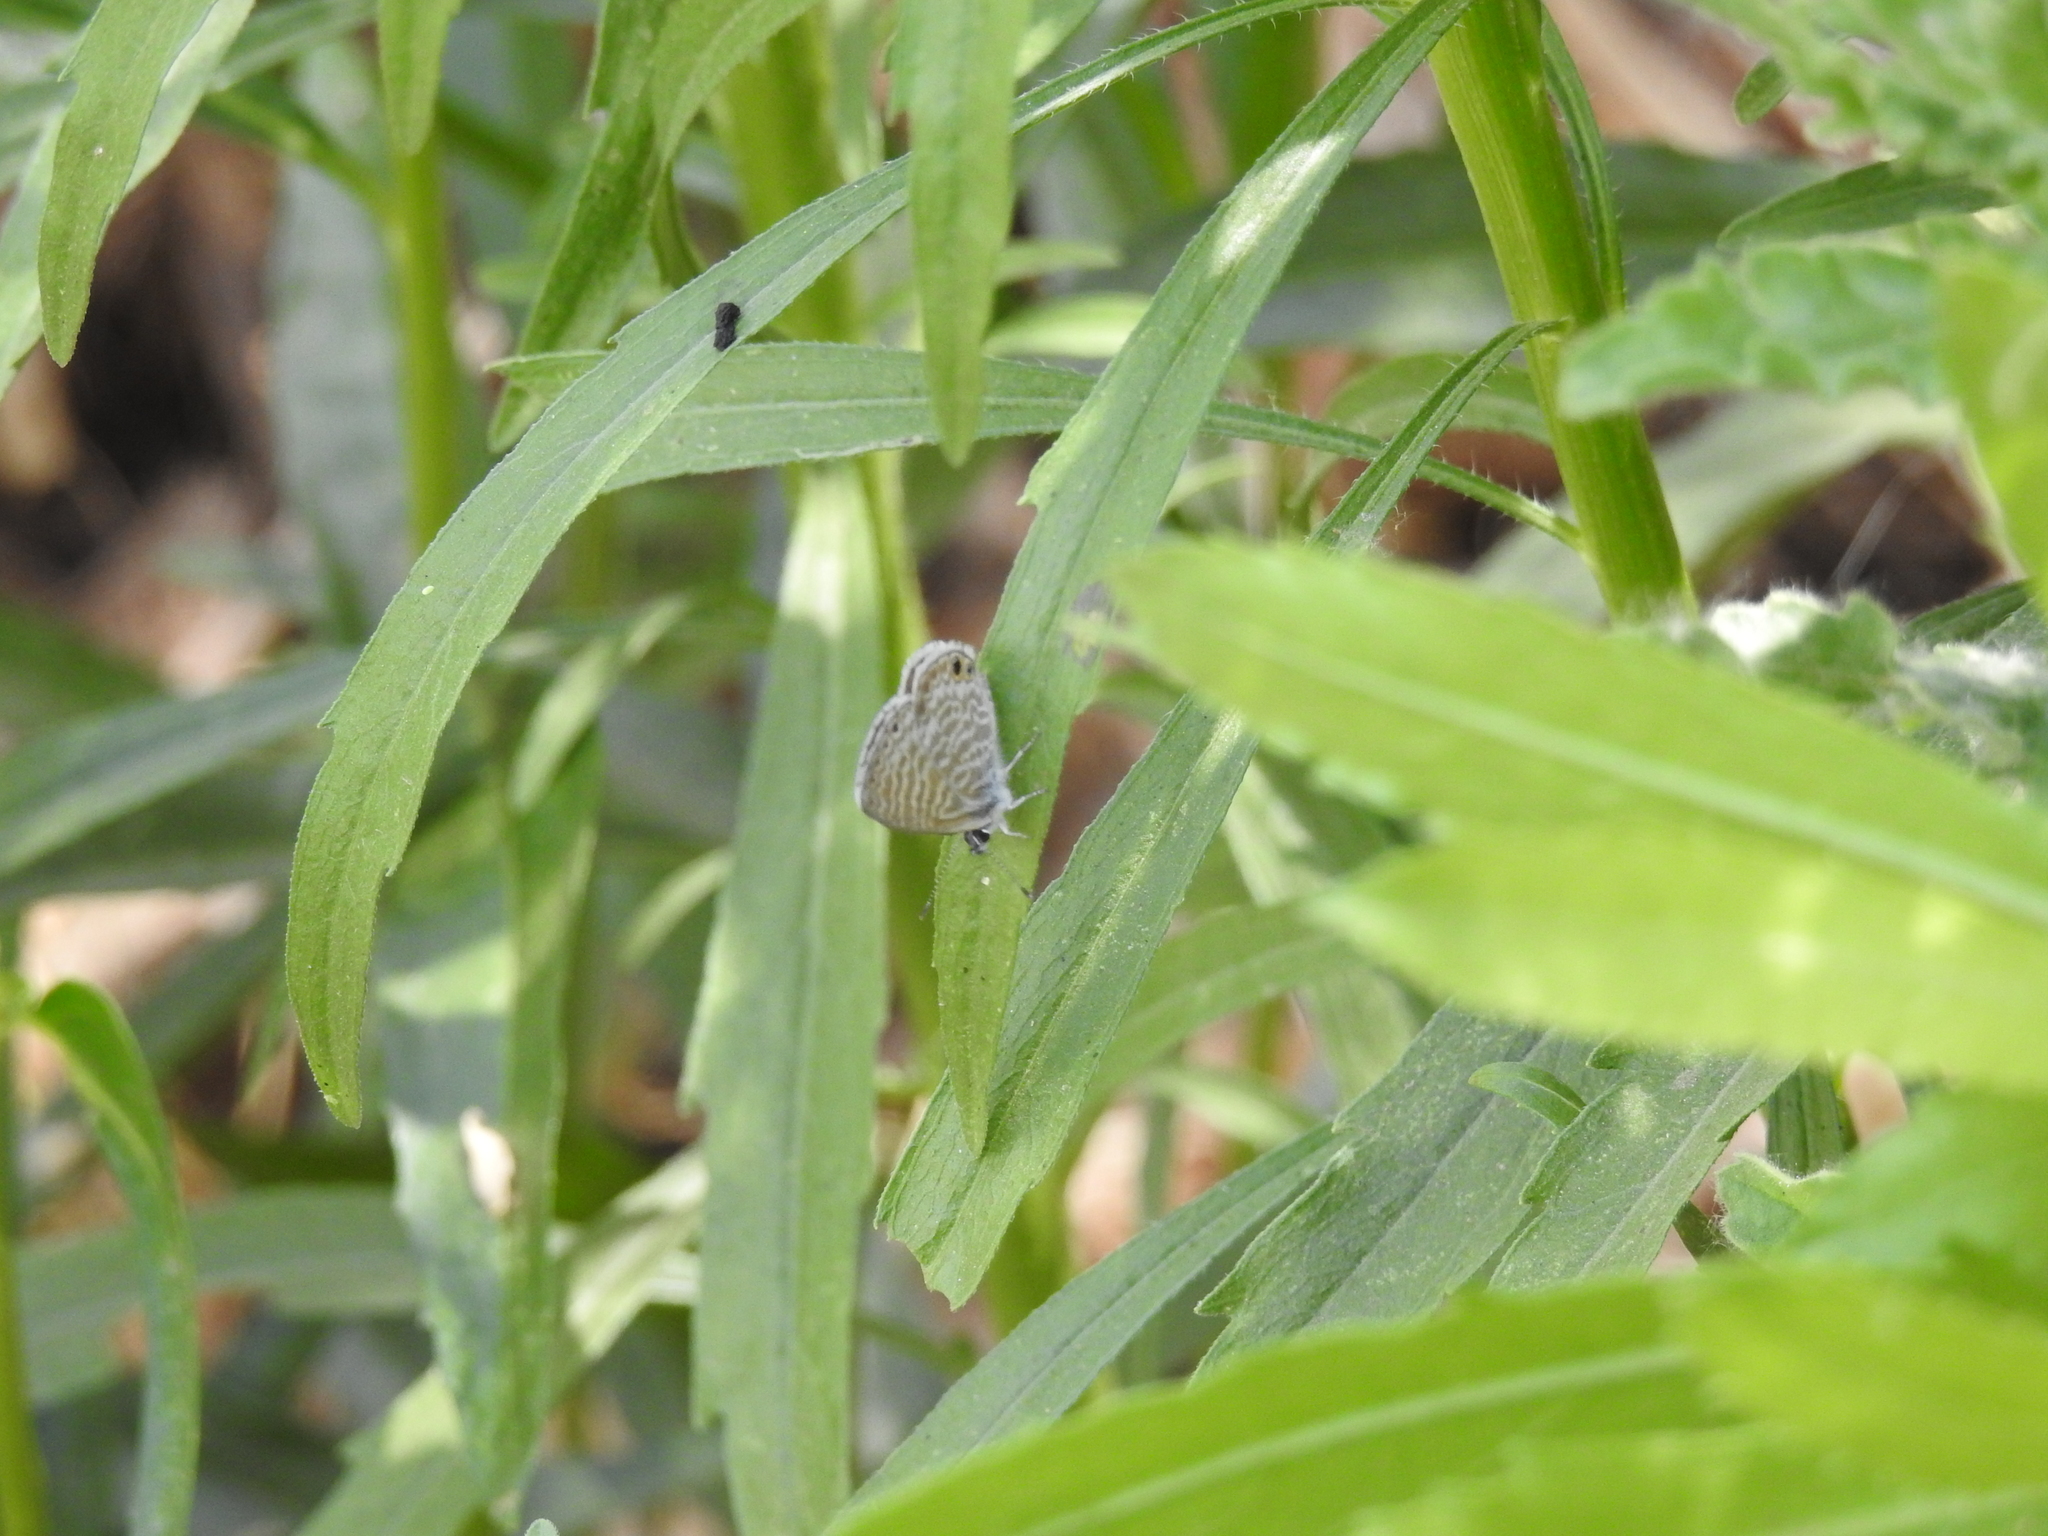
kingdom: Animalia
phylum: Arthropoda
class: Insecta
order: Lepidoptera
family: Lycaenidae
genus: Leptotes
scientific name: Leptotes marina
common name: Marine blue
